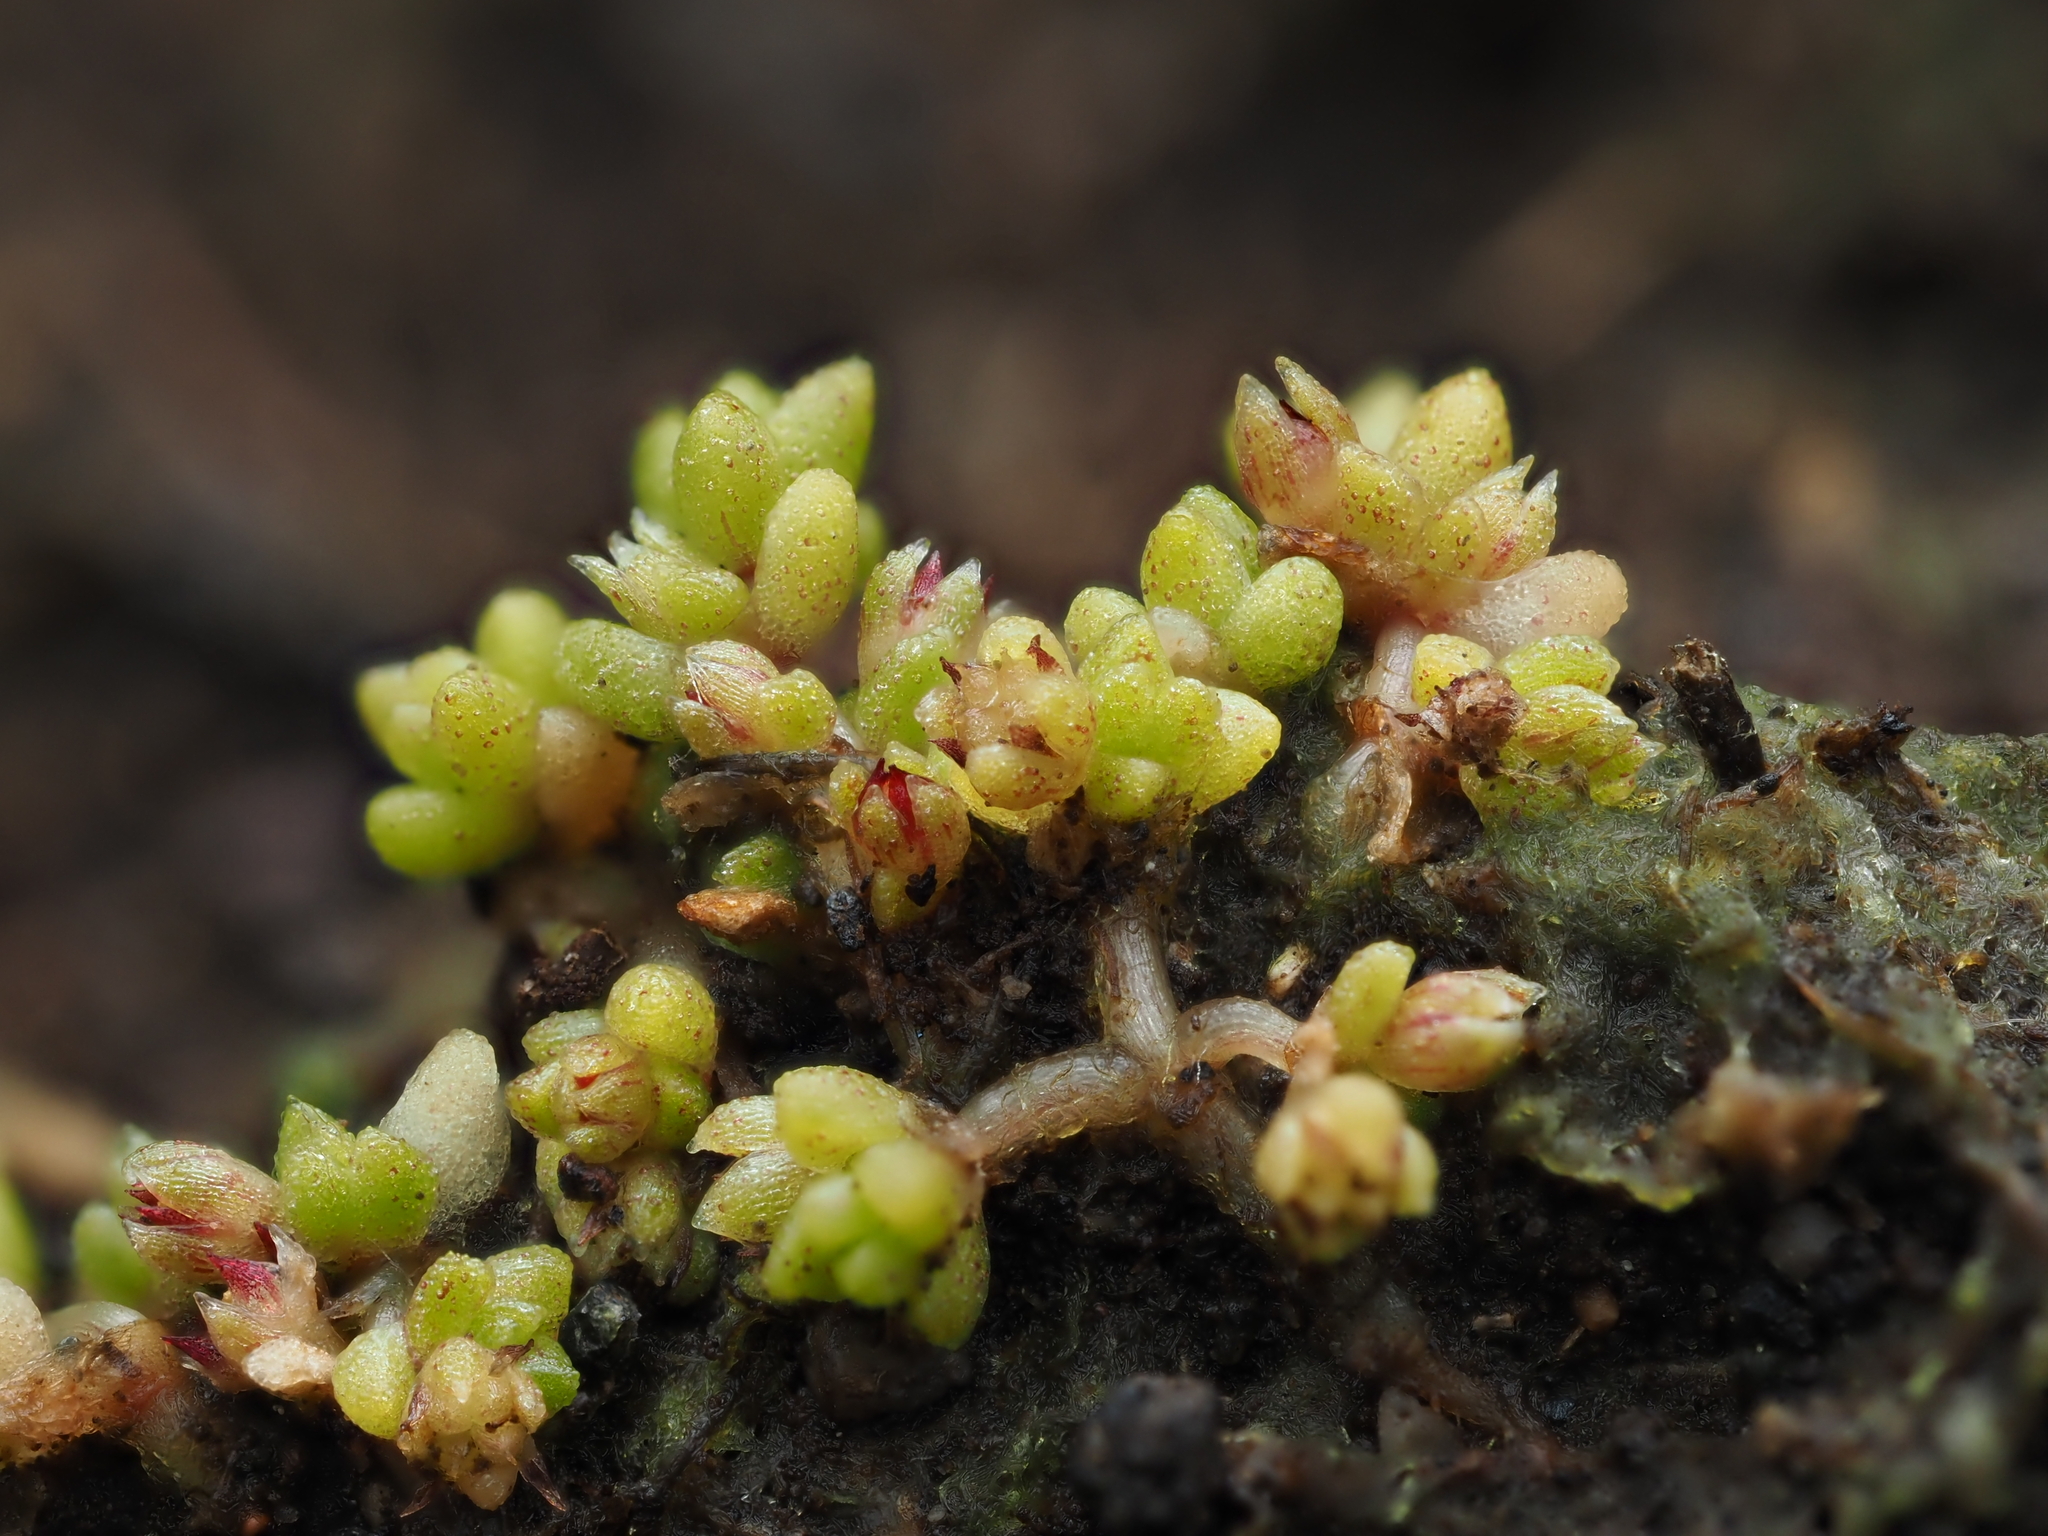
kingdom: Plantae
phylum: Tracheophyta
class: Magnoliopsida
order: Saxifragales
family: Crassulaceae
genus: Crassula
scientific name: Crassula manaia
